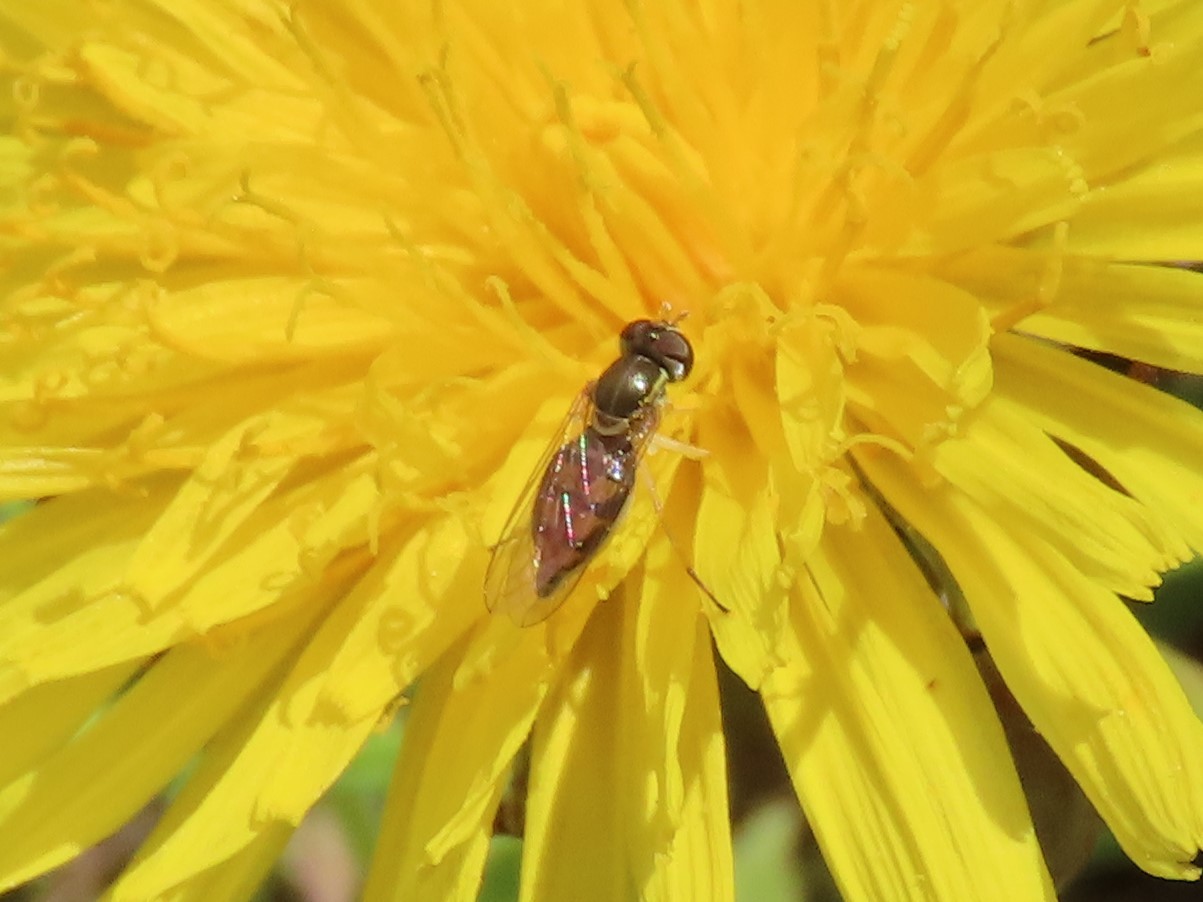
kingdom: Animalia
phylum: Arthropoda
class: Insecta
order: Diptera
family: Syrphidae
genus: Toxomerus
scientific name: Toxomerus marginatus
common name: Syrphid fly
